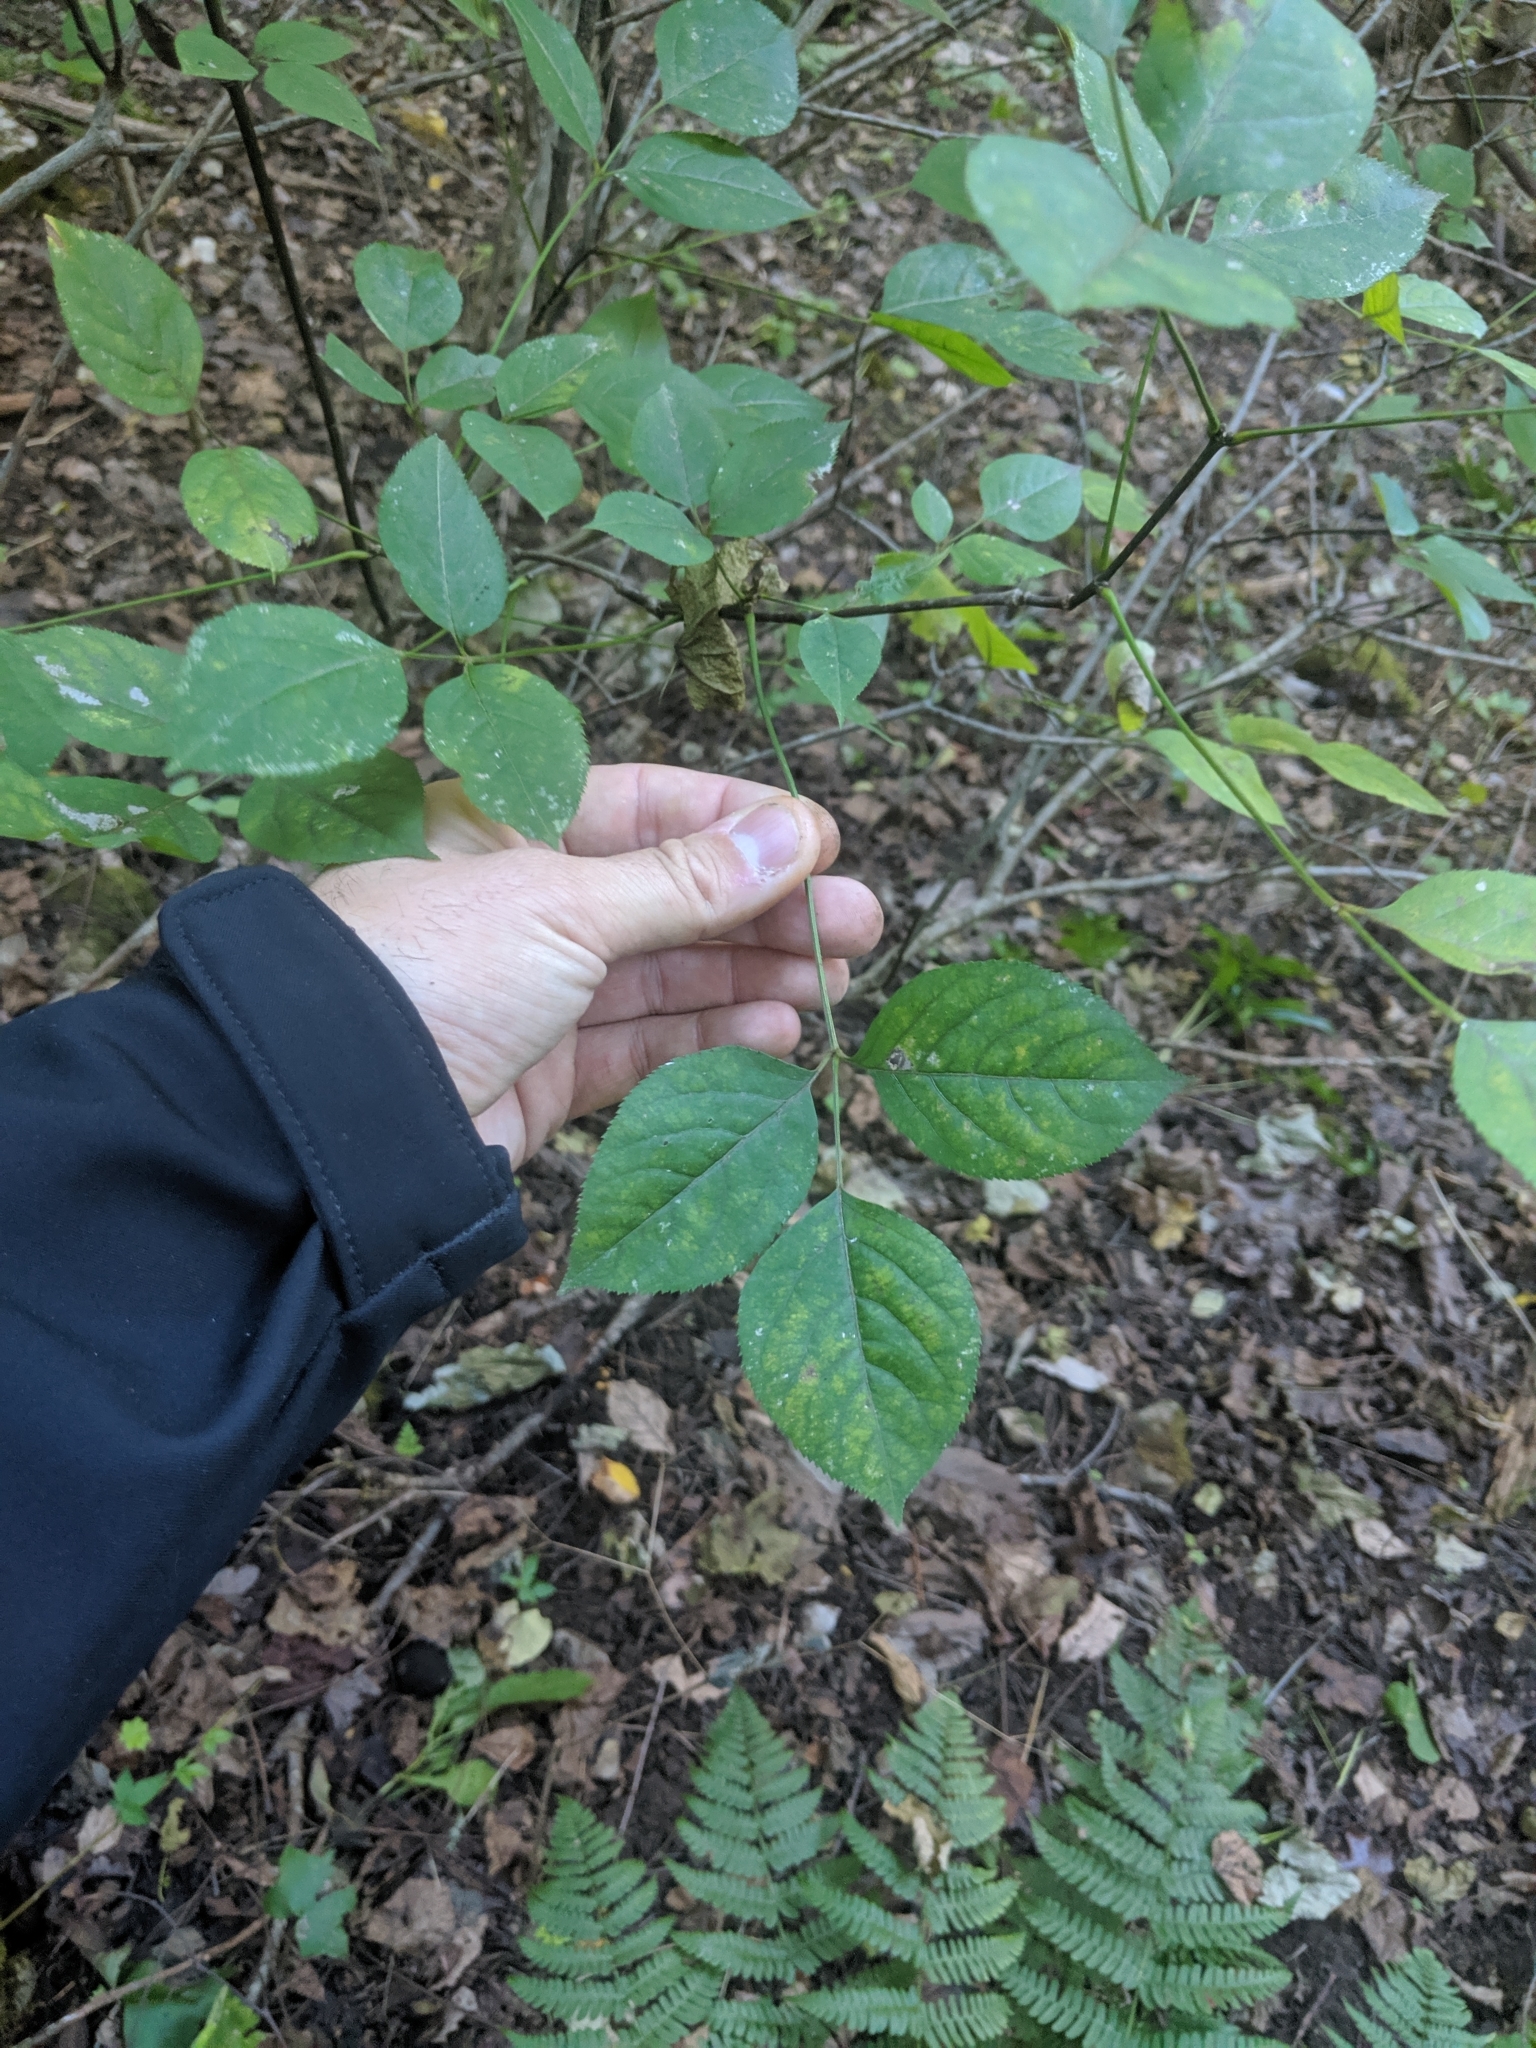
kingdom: Plantae
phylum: Tracheophyta
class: Magnoliopsida
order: Crossosomatales
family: Staphyleaceae
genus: Staphylea
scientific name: Staphylea trifolia
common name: American bladdernut
